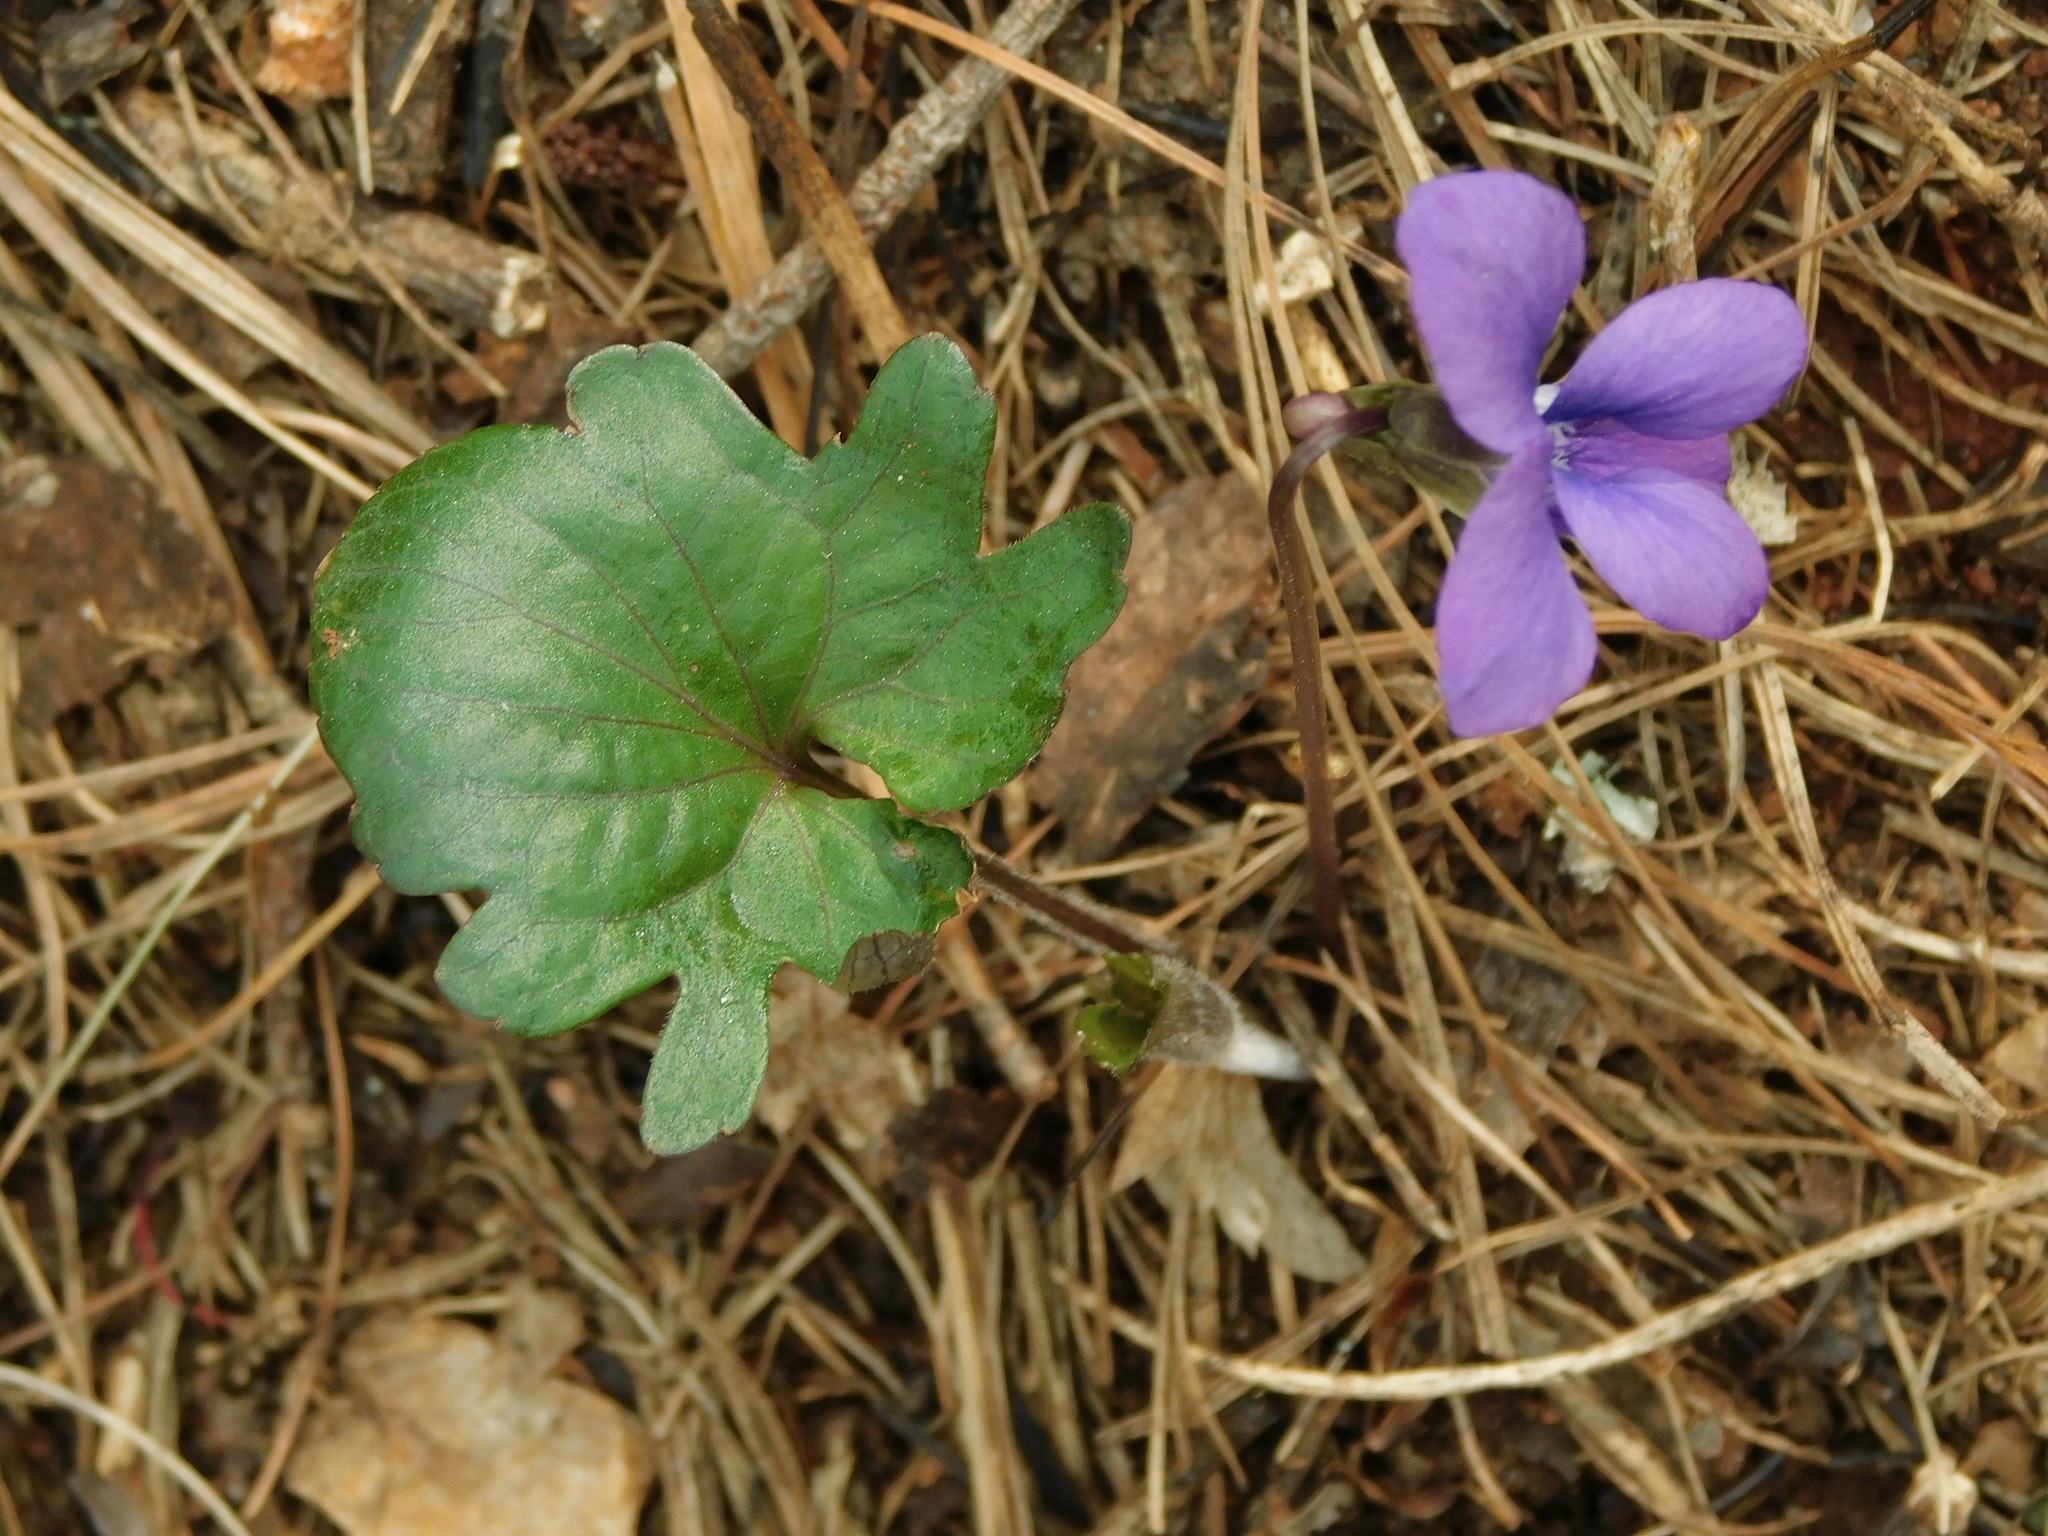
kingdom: Plantae
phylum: Tracheophyta
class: Magnoliopsida
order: Malpighiales
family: Violaceae
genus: Viola
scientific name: Viola palmata
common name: Early blue violet
